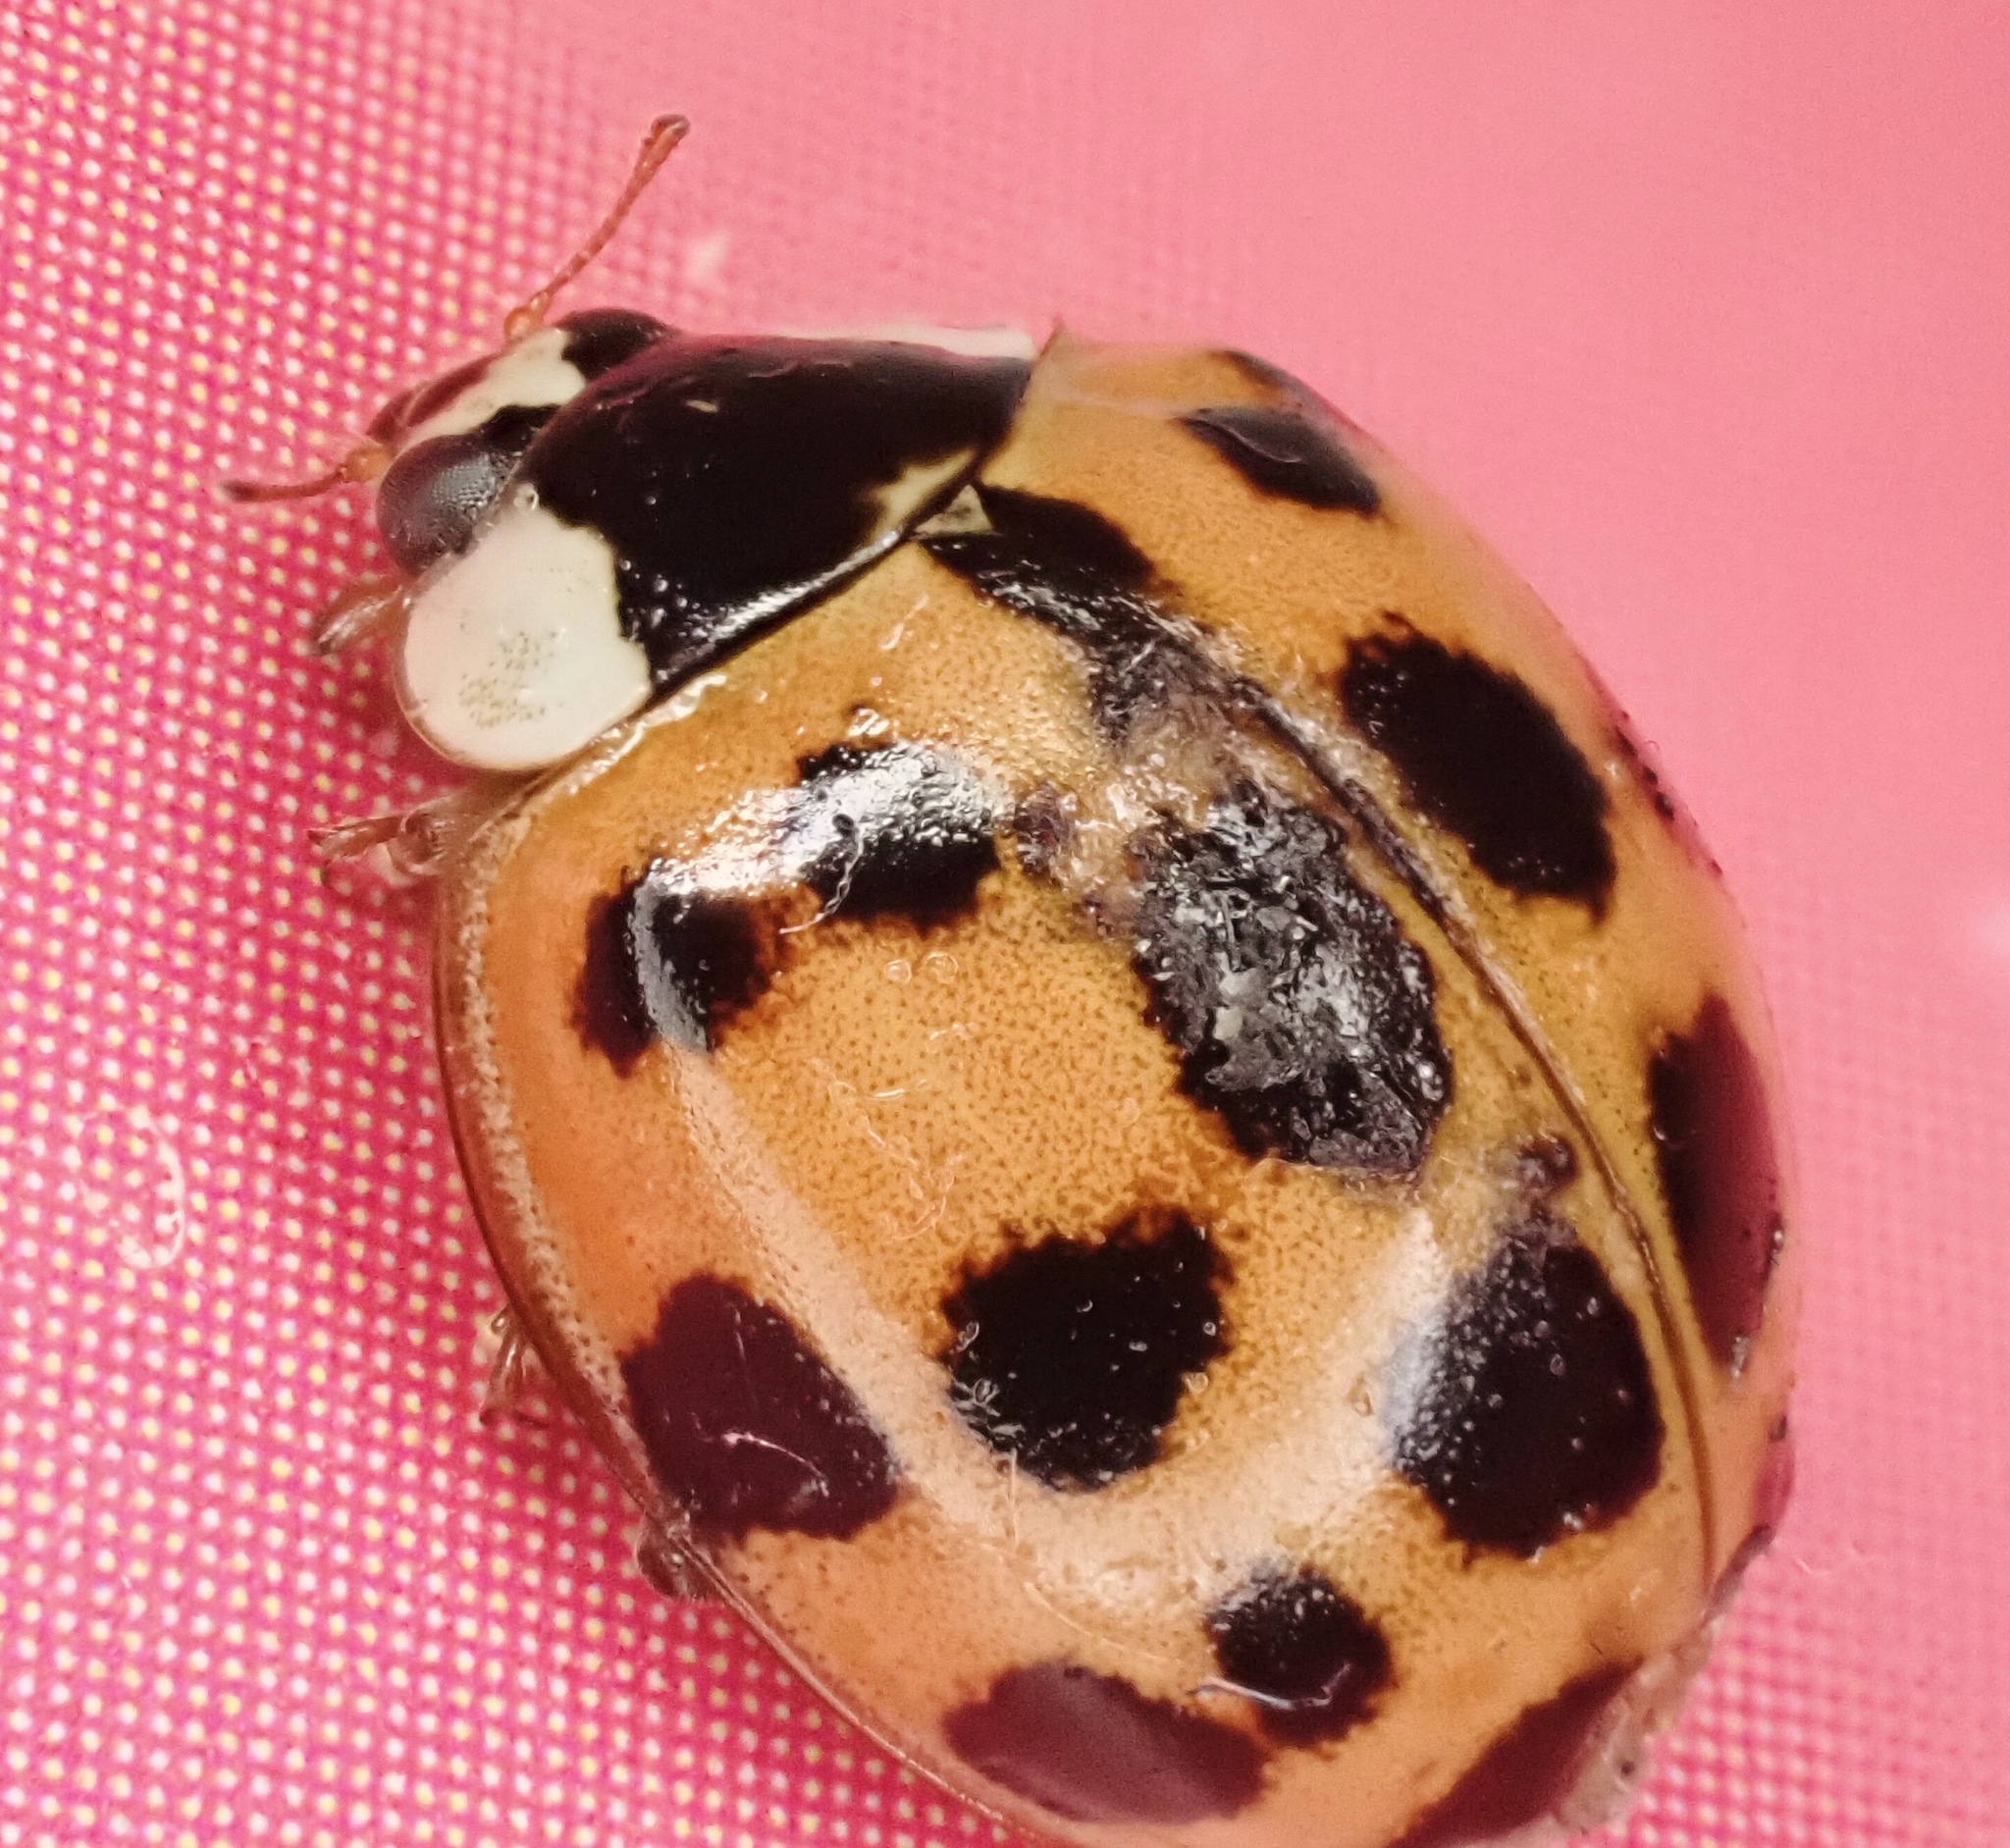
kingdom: Animalia
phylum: Arthropoda
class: Insecta
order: Coleoptera
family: Coccinellidae
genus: Harmonia
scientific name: Harmonia axyridis
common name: Harlequin ladybird
